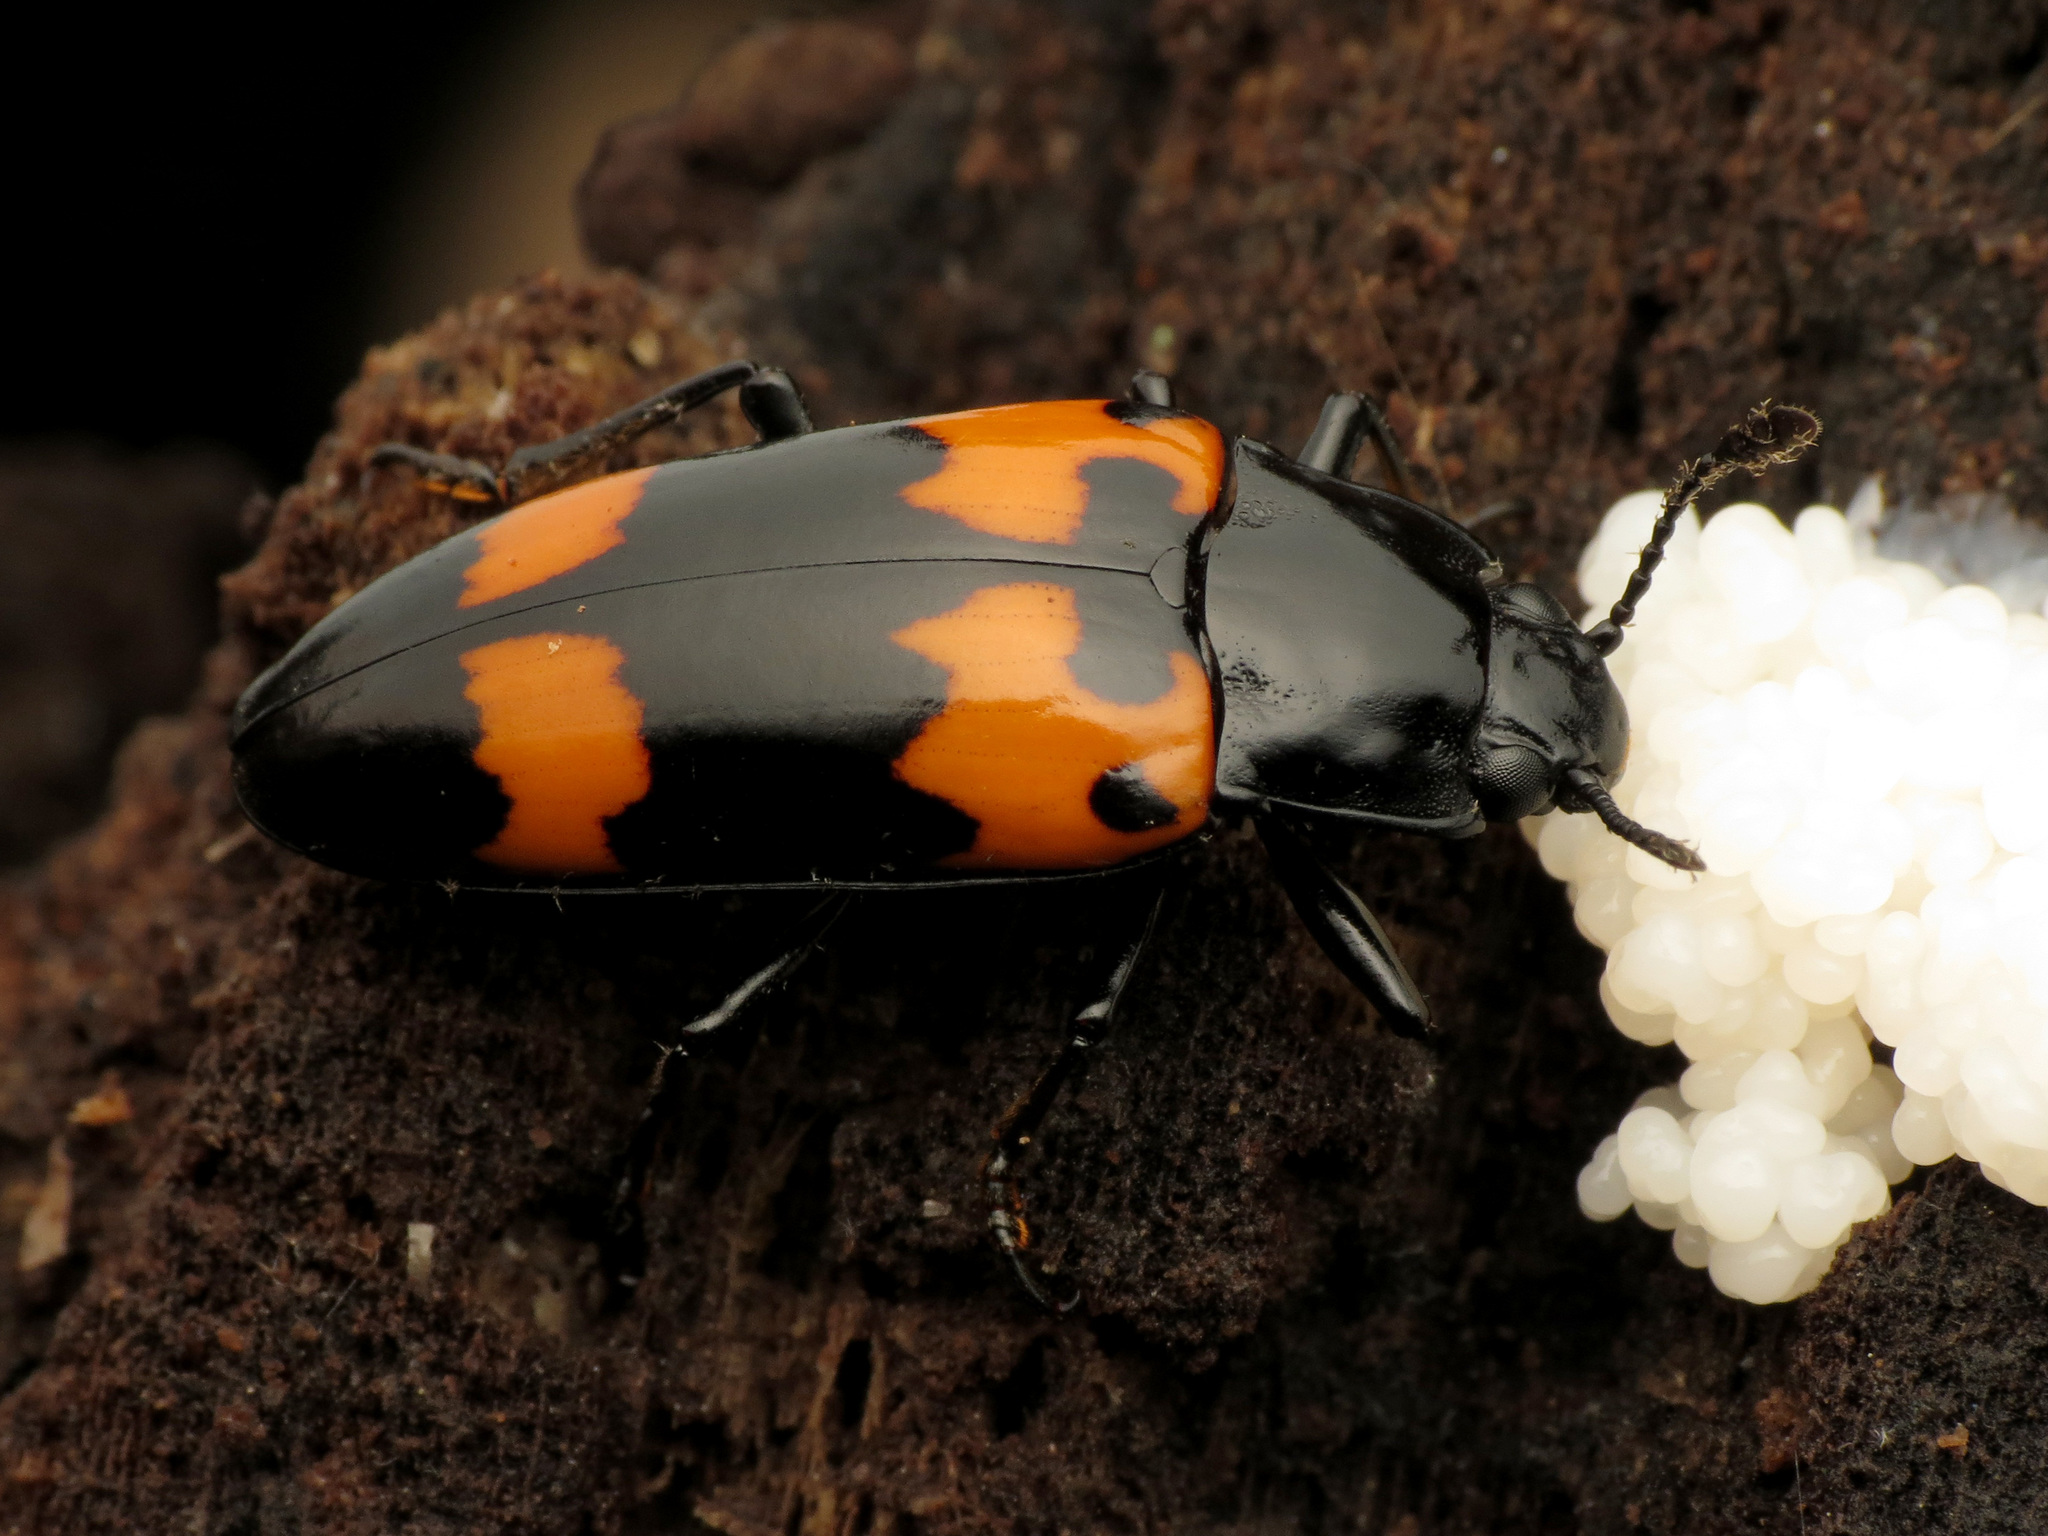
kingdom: Animalia
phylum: Arthropoda
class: Insecta
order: Coleoptera
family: Erotylidae
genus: Megalodacne
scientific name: Megalodacne heros
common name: Pleasing fungus beetle
